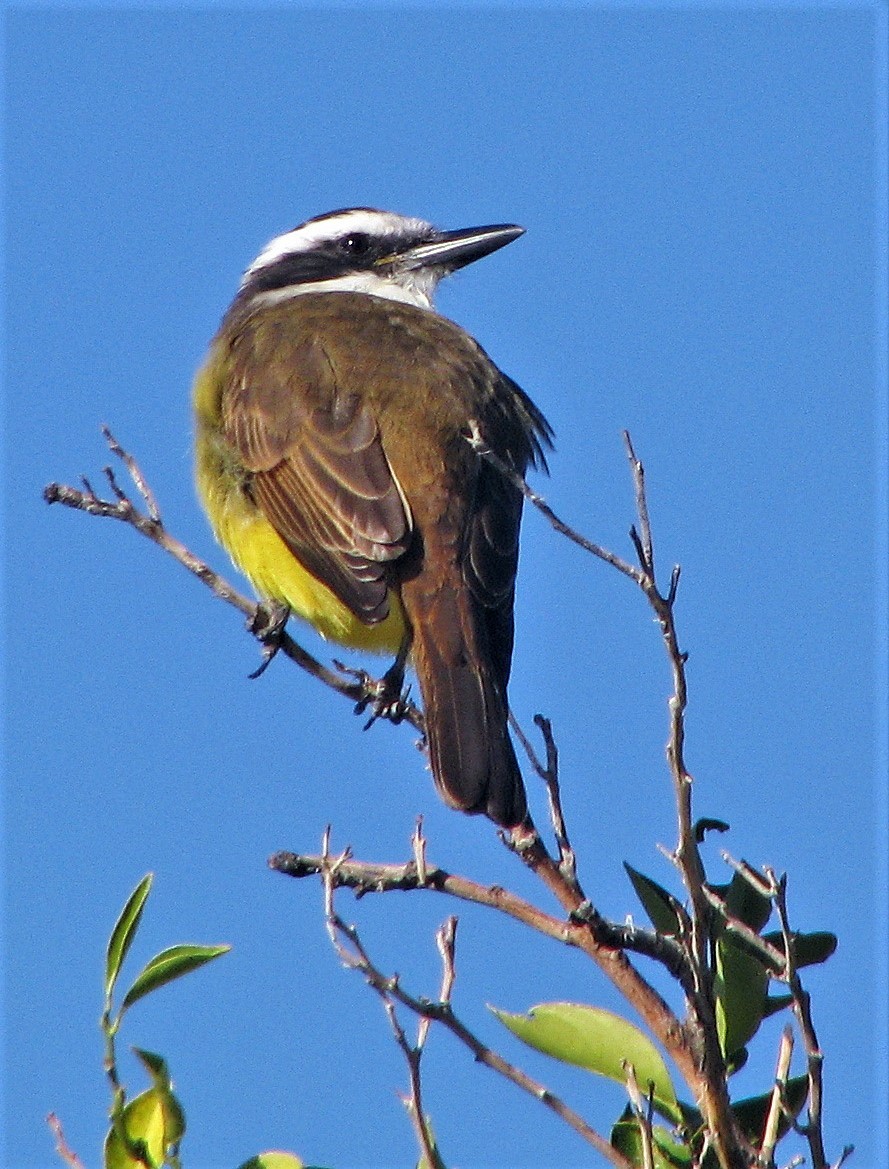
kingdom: Animalia
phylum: Chordata
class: Aves
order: Passeriformes
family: Tyrannidae
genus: Pitangus
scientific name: Pitangus sulphuratus
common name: Great kiskadee
